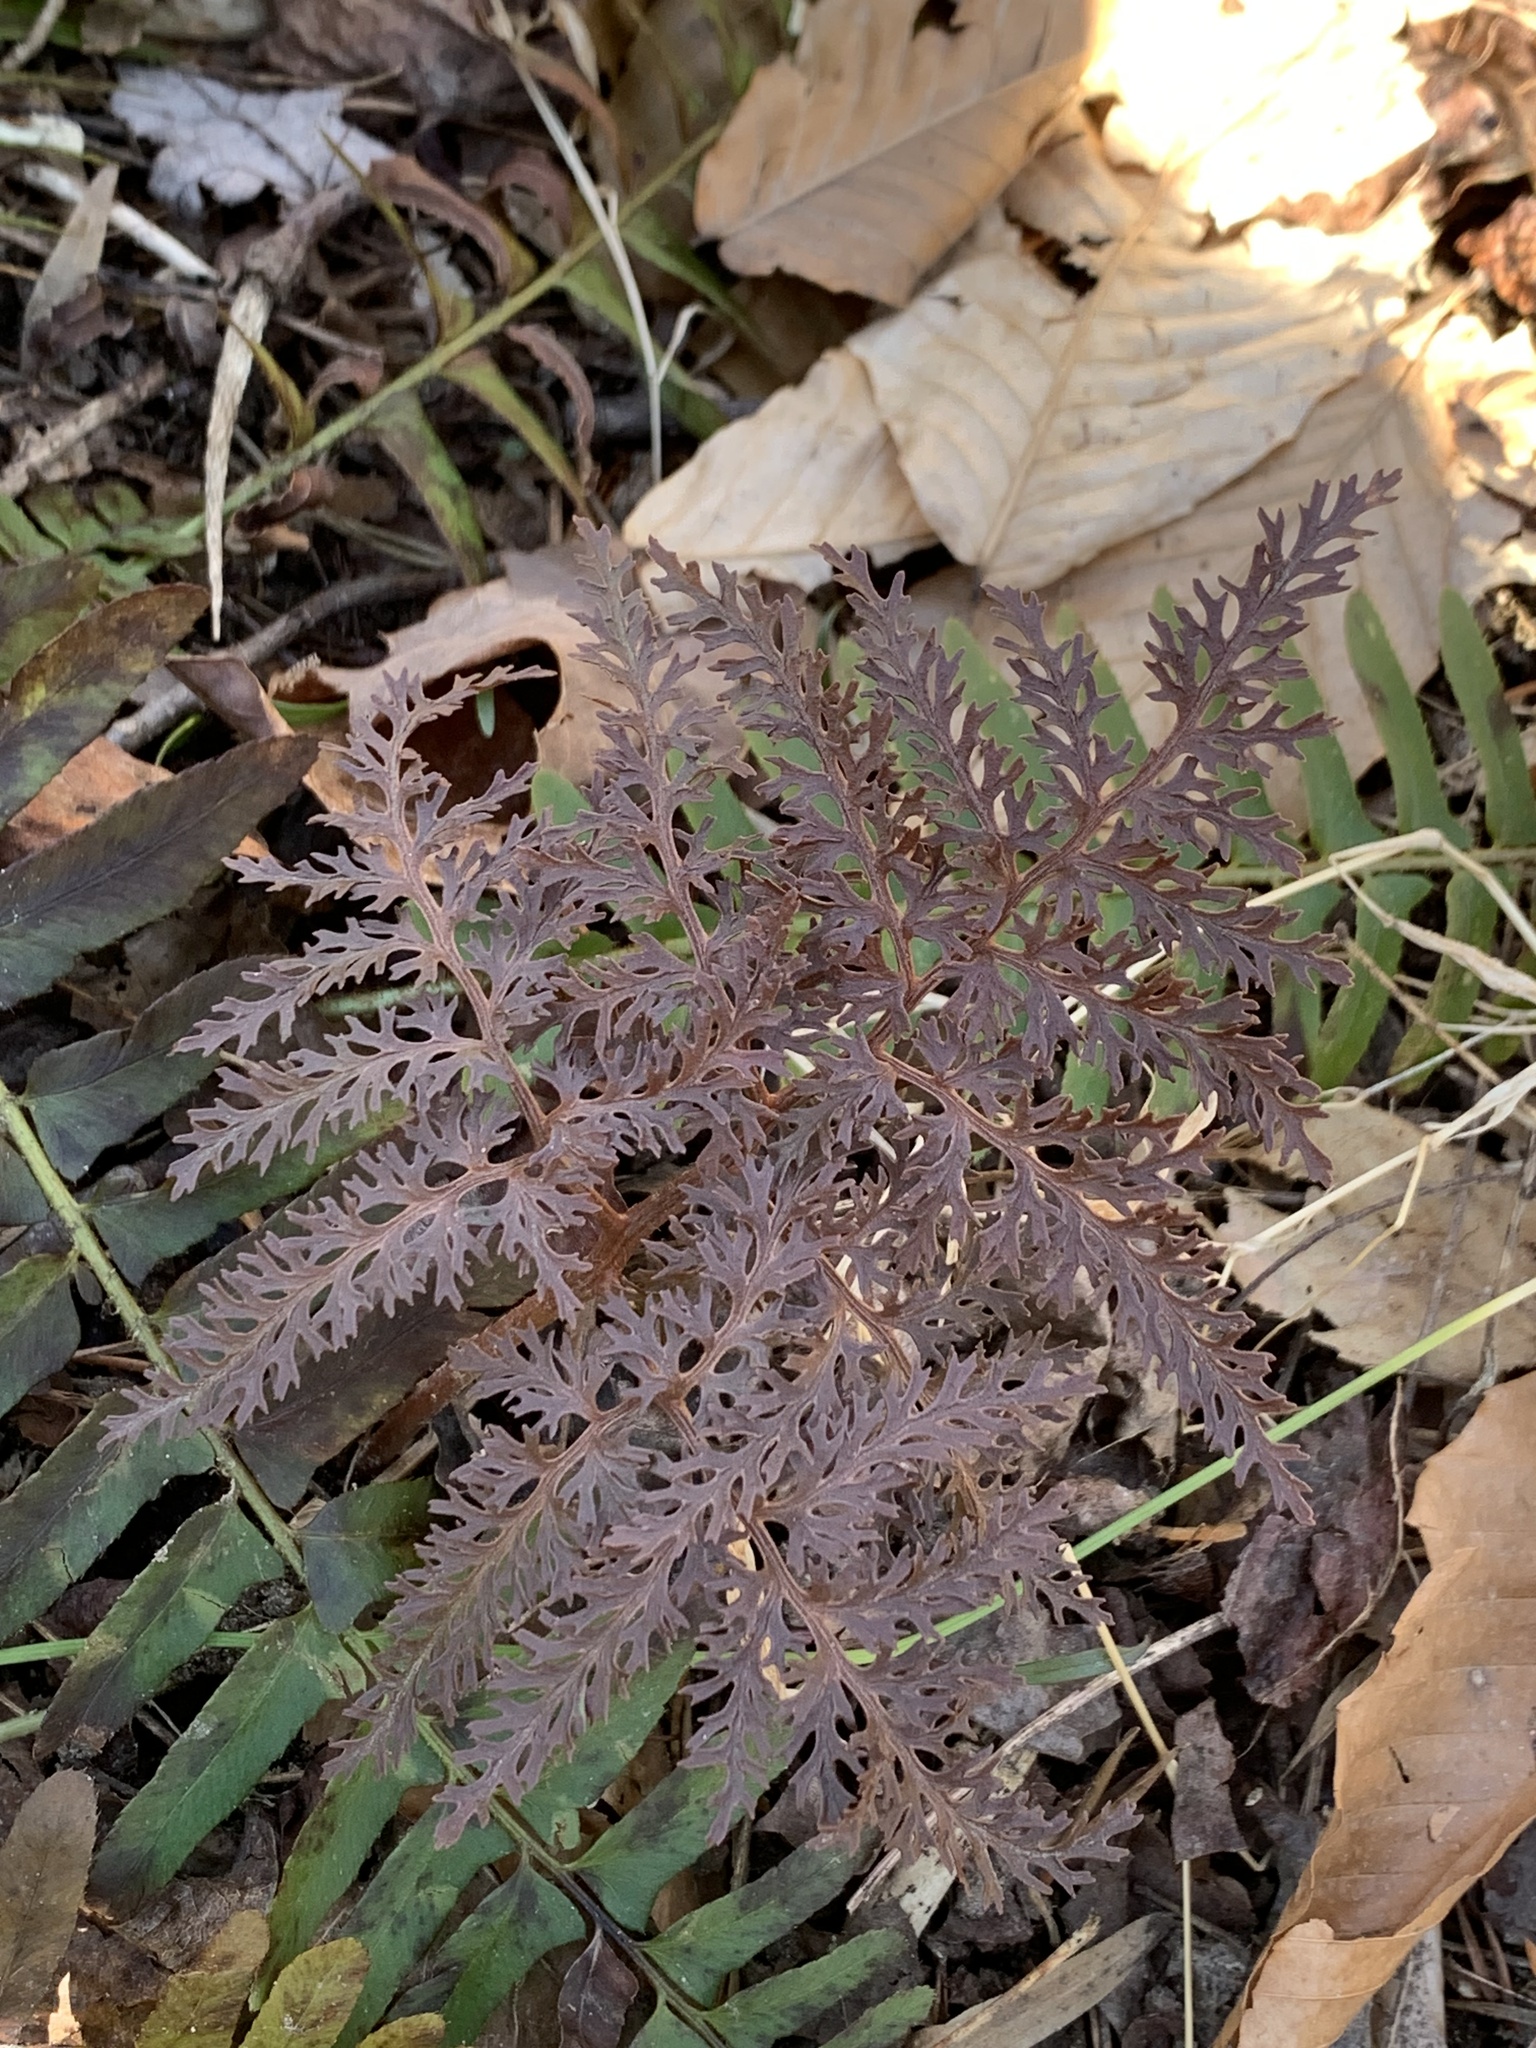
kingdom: Plantae
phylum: Tracheophyta
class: Polypodiopsida
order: Ophioglossales
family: Ophioglossaceae
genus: Sceptridium
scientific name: Sceptridium dissectum
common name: Cut-leaved grapefern
